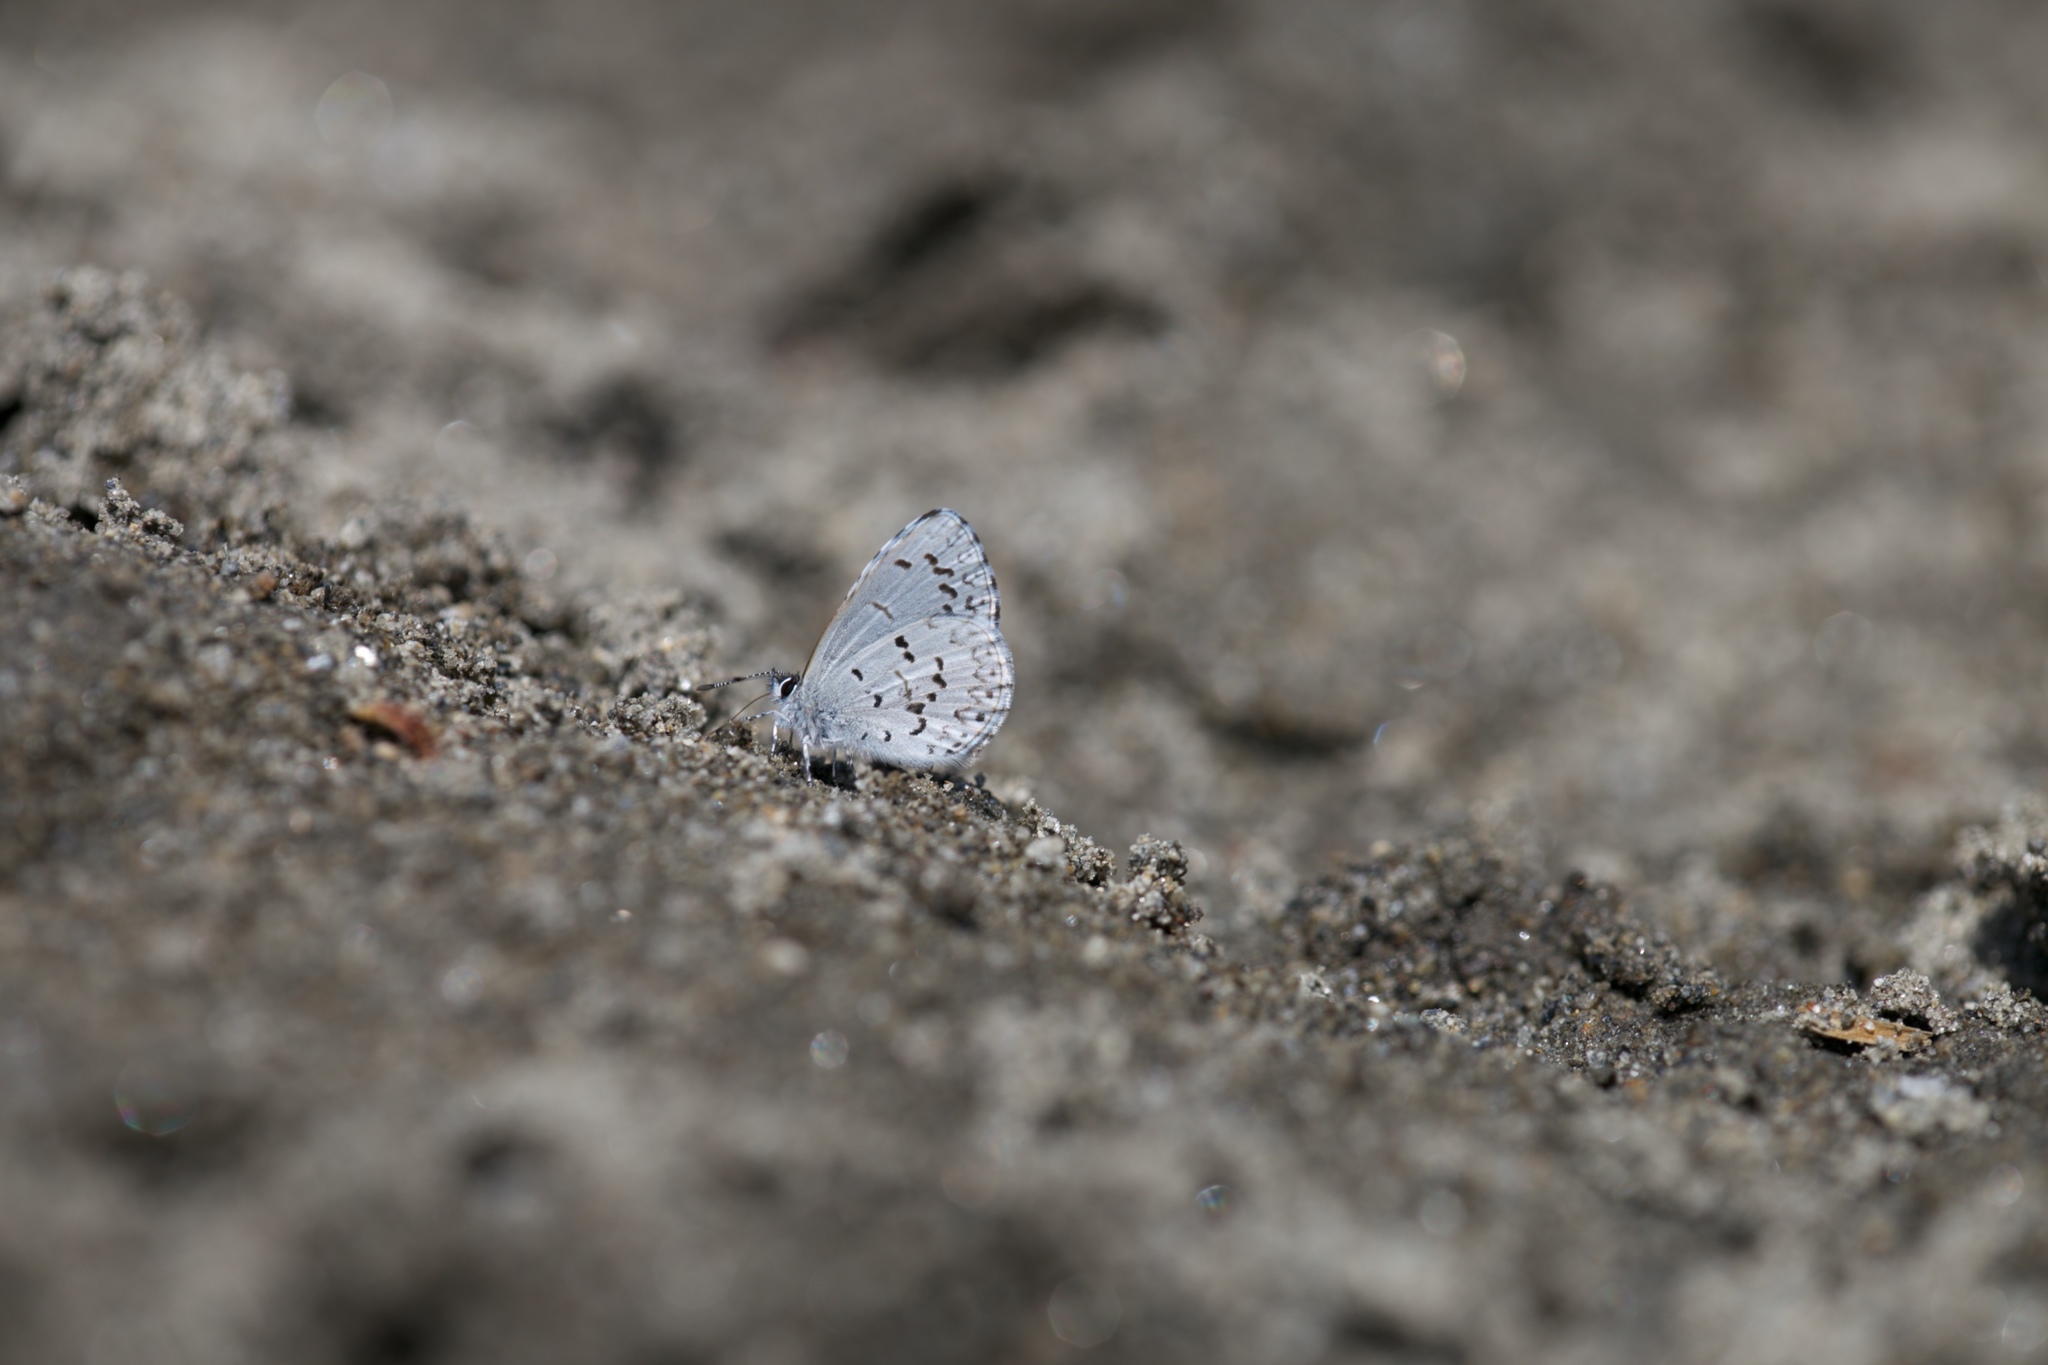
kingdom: Animalia
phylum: Arthropoda
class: Insecta
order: Lepidoptera
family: Lycaenidae
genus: Celastrina
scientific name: Celastrina lucia
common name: Lucia azure
